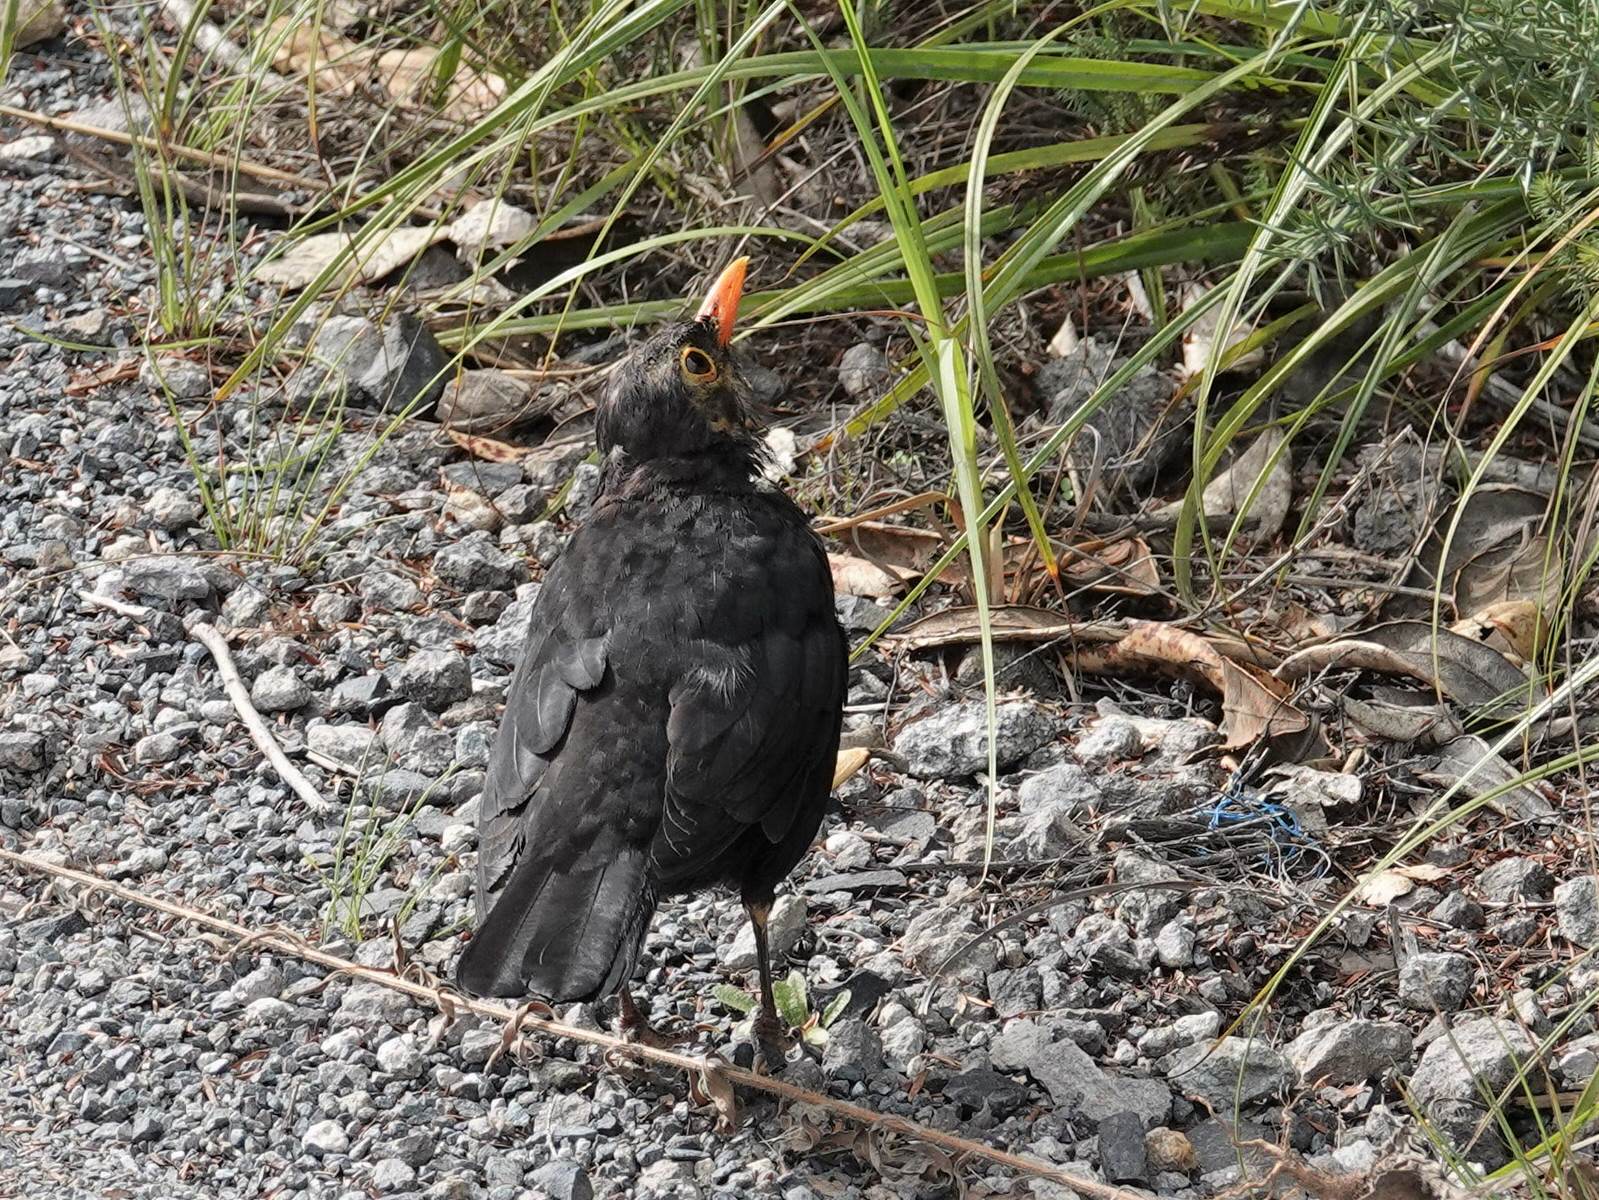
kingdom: Animalia
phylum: Chordata
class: Aves
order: Passeriformes
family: Turdidae
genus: Turdus
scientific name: Turdus merula
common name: Common blackbird
